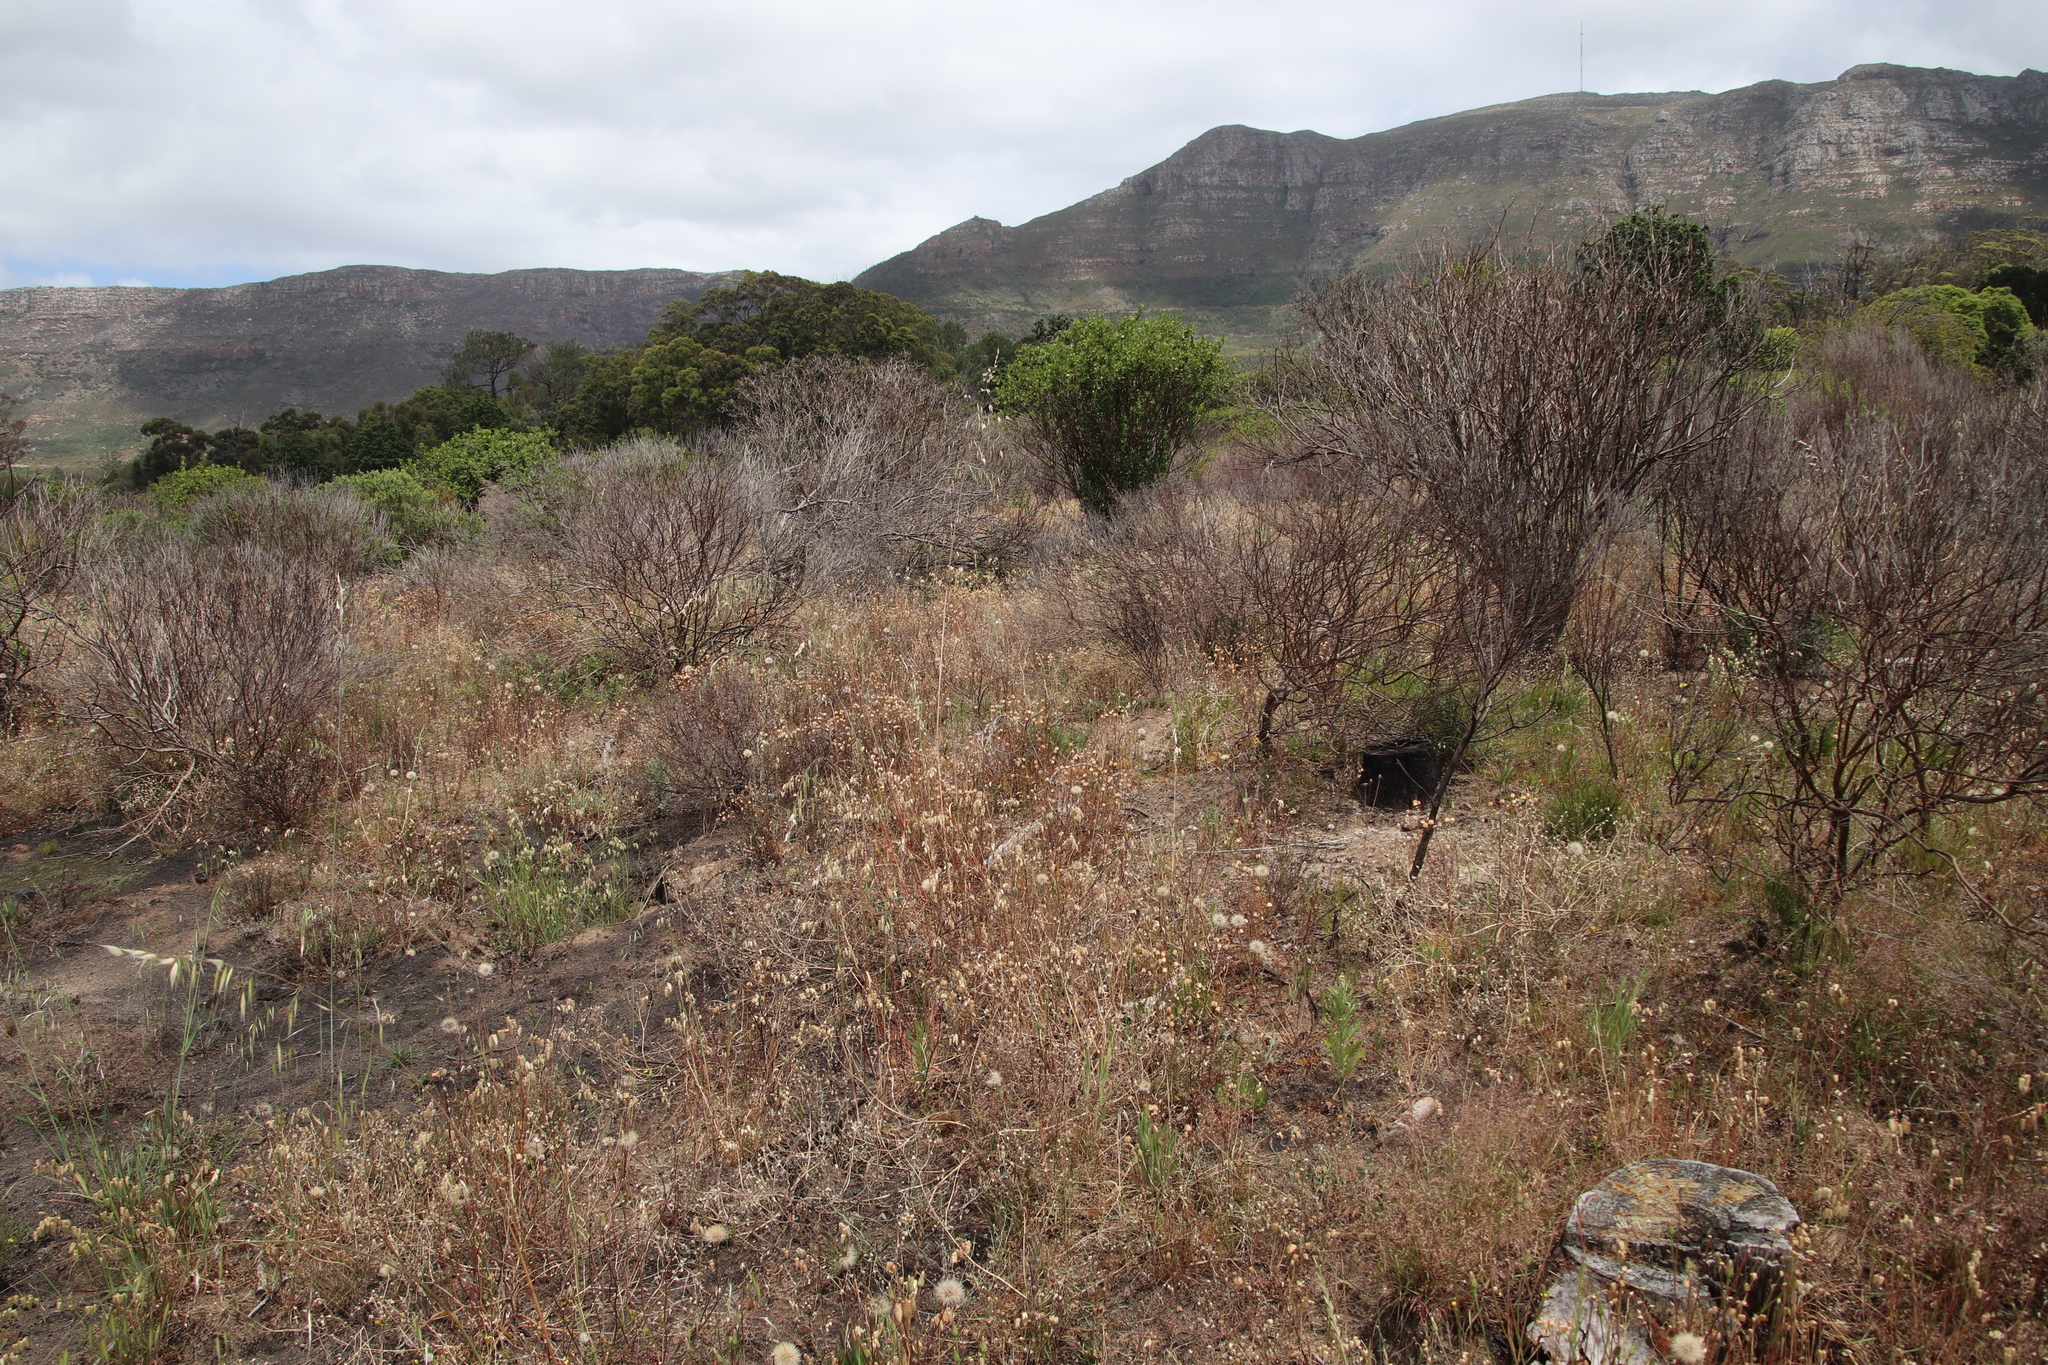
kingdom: Plantae
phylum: Tracheophyta
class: Liliopsida
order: Poales
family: Poaceae
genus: Briza
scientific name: Briza maxima
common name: Big quakinggrass
